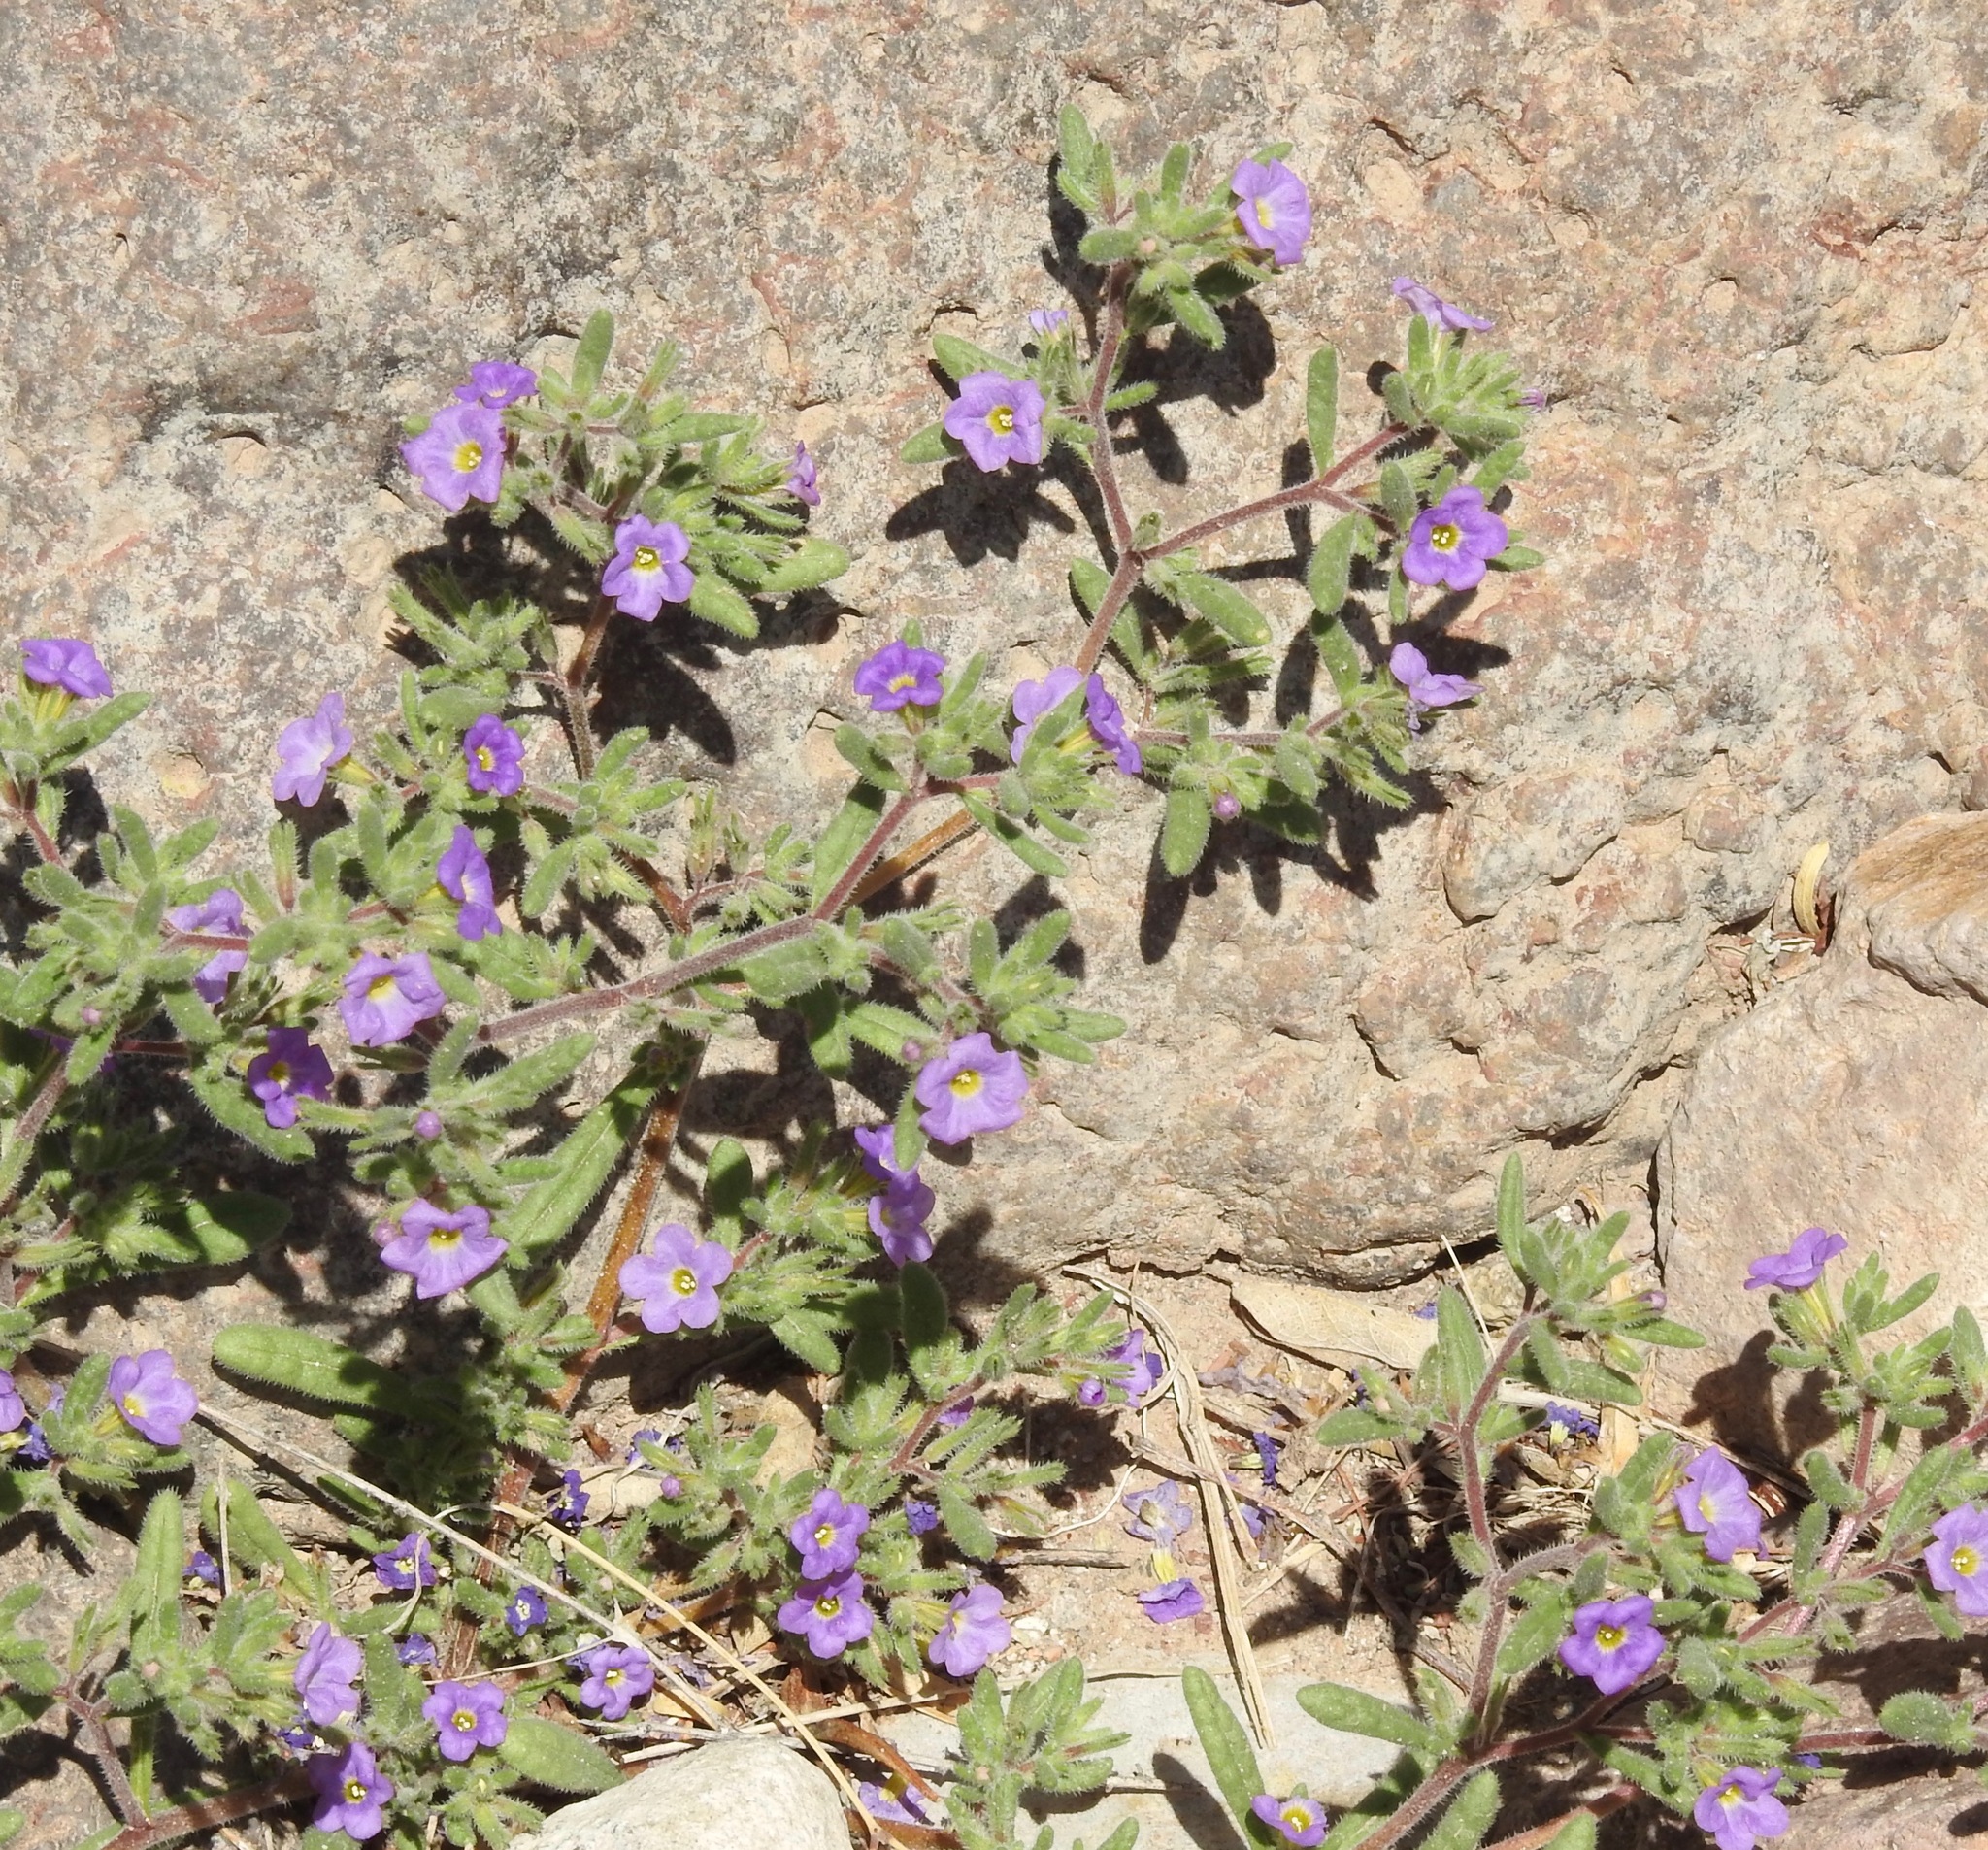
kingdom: Plantae
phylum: Tracheophyta
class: Magnoliopsida
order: Boraginales
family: Namaceae
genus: Nama
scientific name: Nama hispida
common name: Bristly nama
